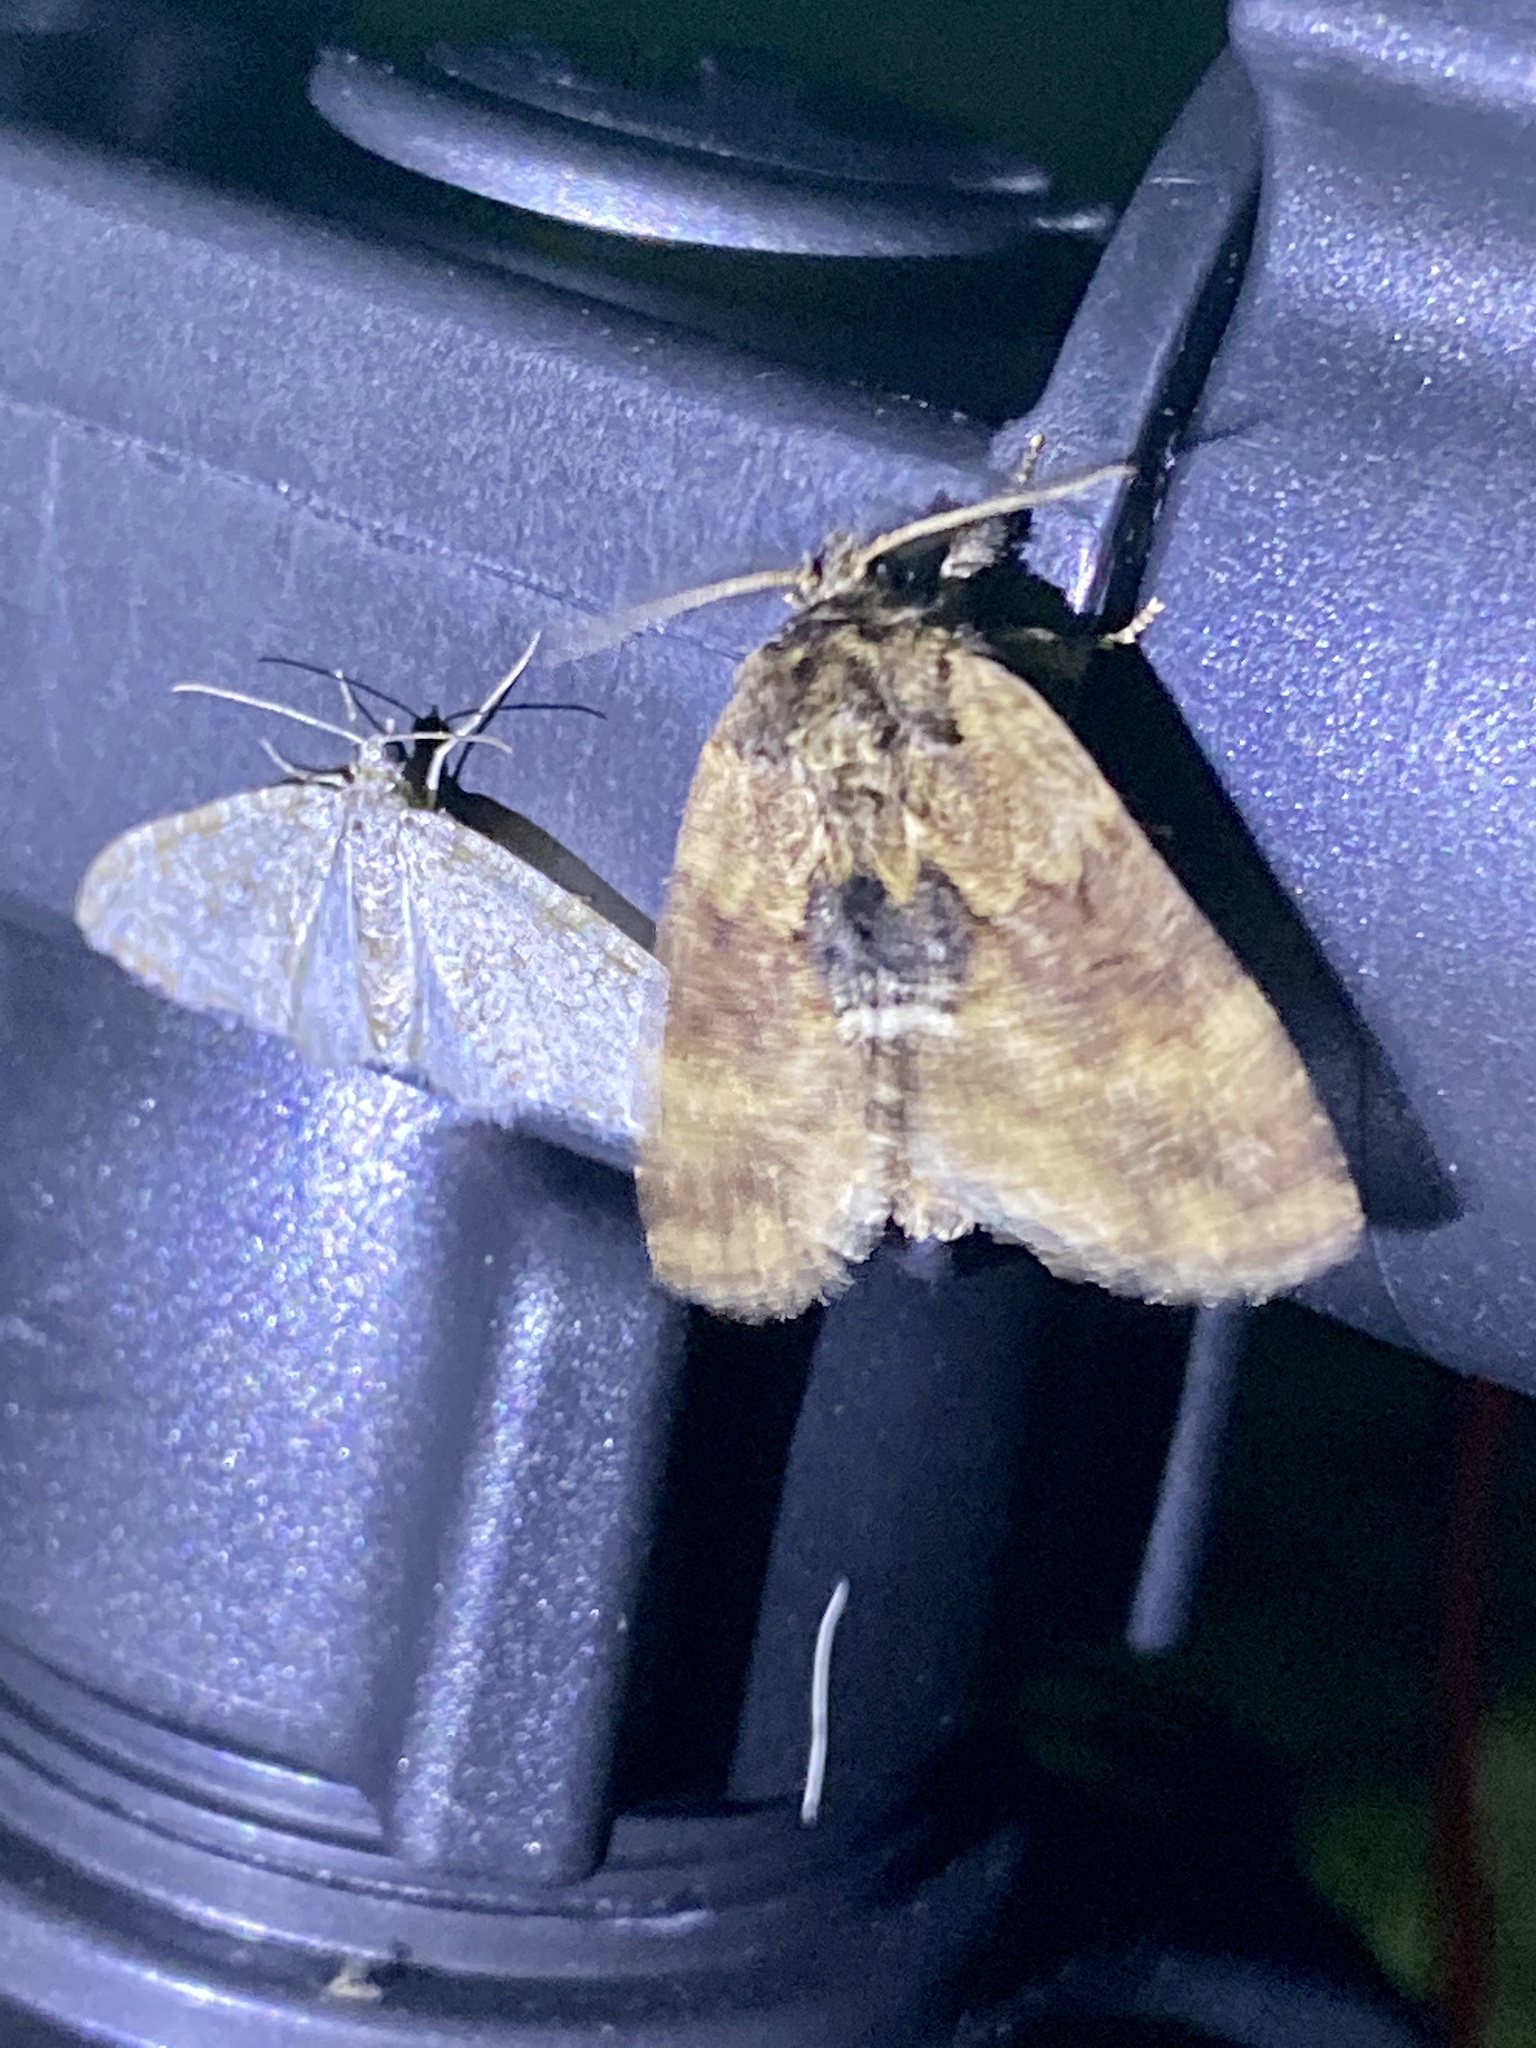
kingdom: Animalia
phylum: Arthropoda
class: Insecta
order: Lepidoptera
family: Notodontidae
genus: Lophontosia
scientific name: Lophontosia
